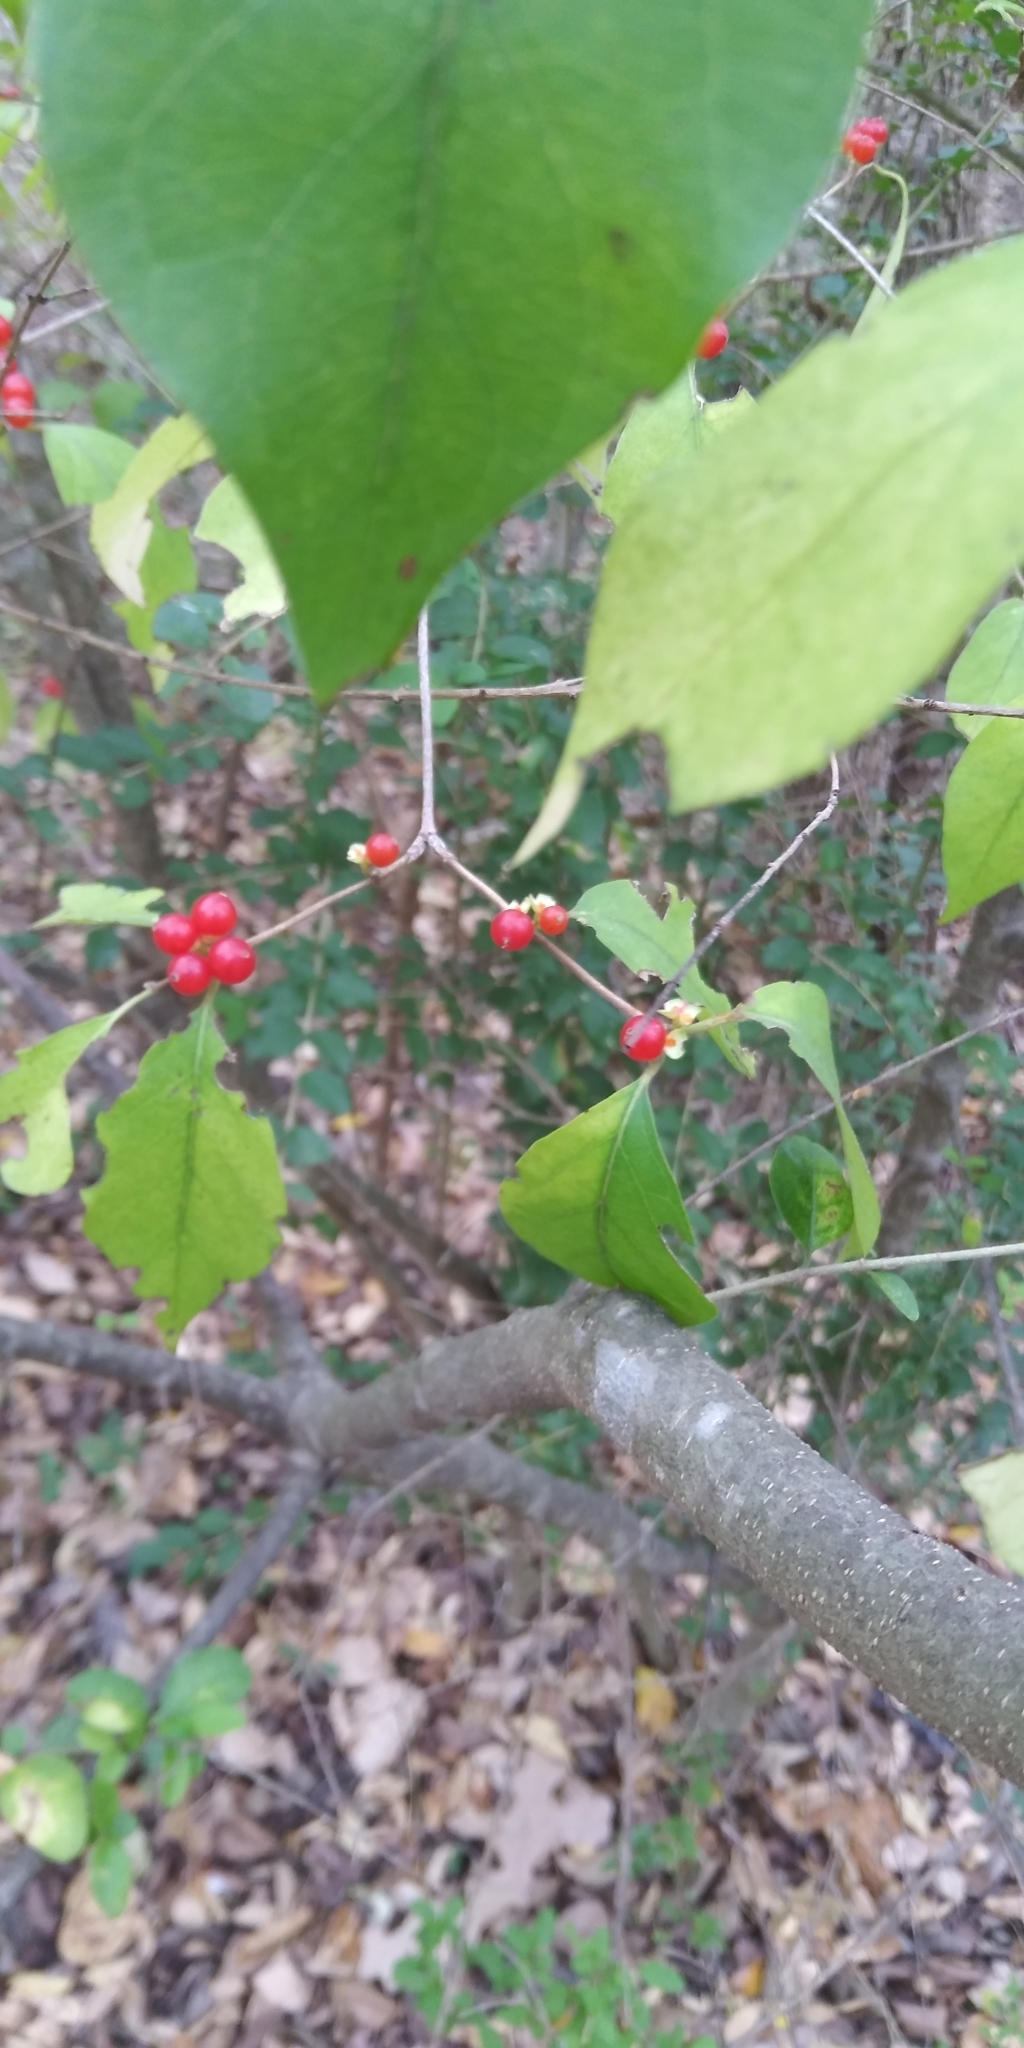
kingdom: Plantae
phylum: Tracheophyta
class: Magnoliopsida
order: Dipsacales
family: Caprifoliaceae
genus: Lonicera
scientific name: Lonicera maackii
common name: Amur honeysuckle
